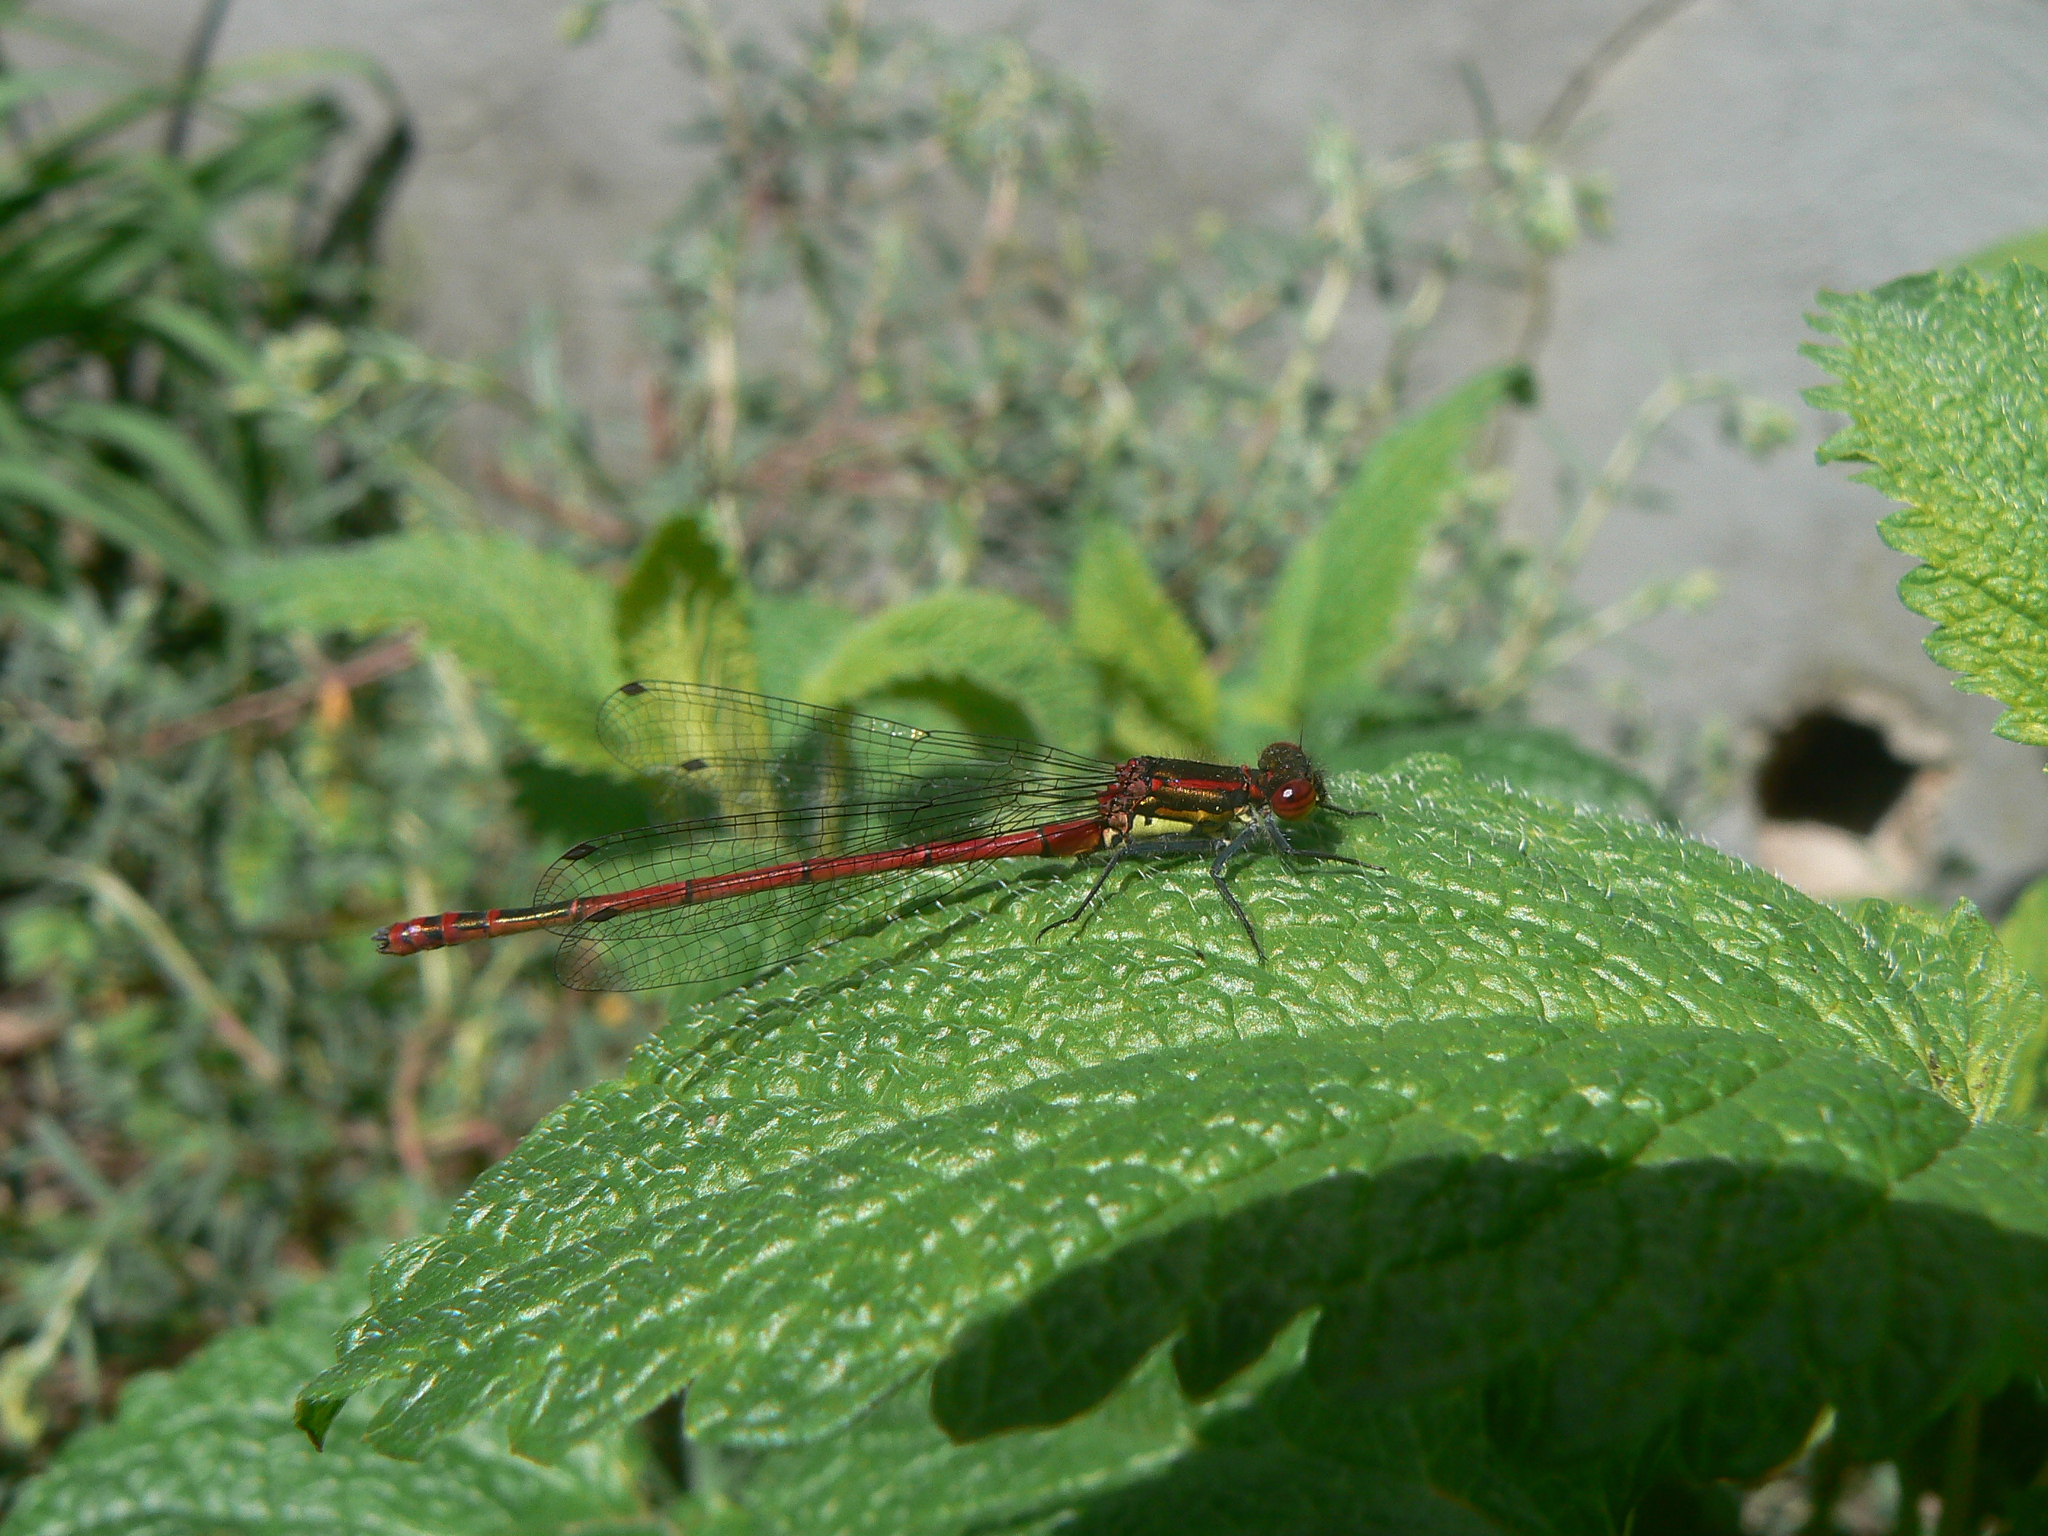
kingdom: Animalia
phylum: Arthropoda
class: Insecta
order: Odonata
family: Coenagrionidae
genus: Pyrrhosoma
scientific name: Pyrrhosoma nymphula
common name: Large red damsel
